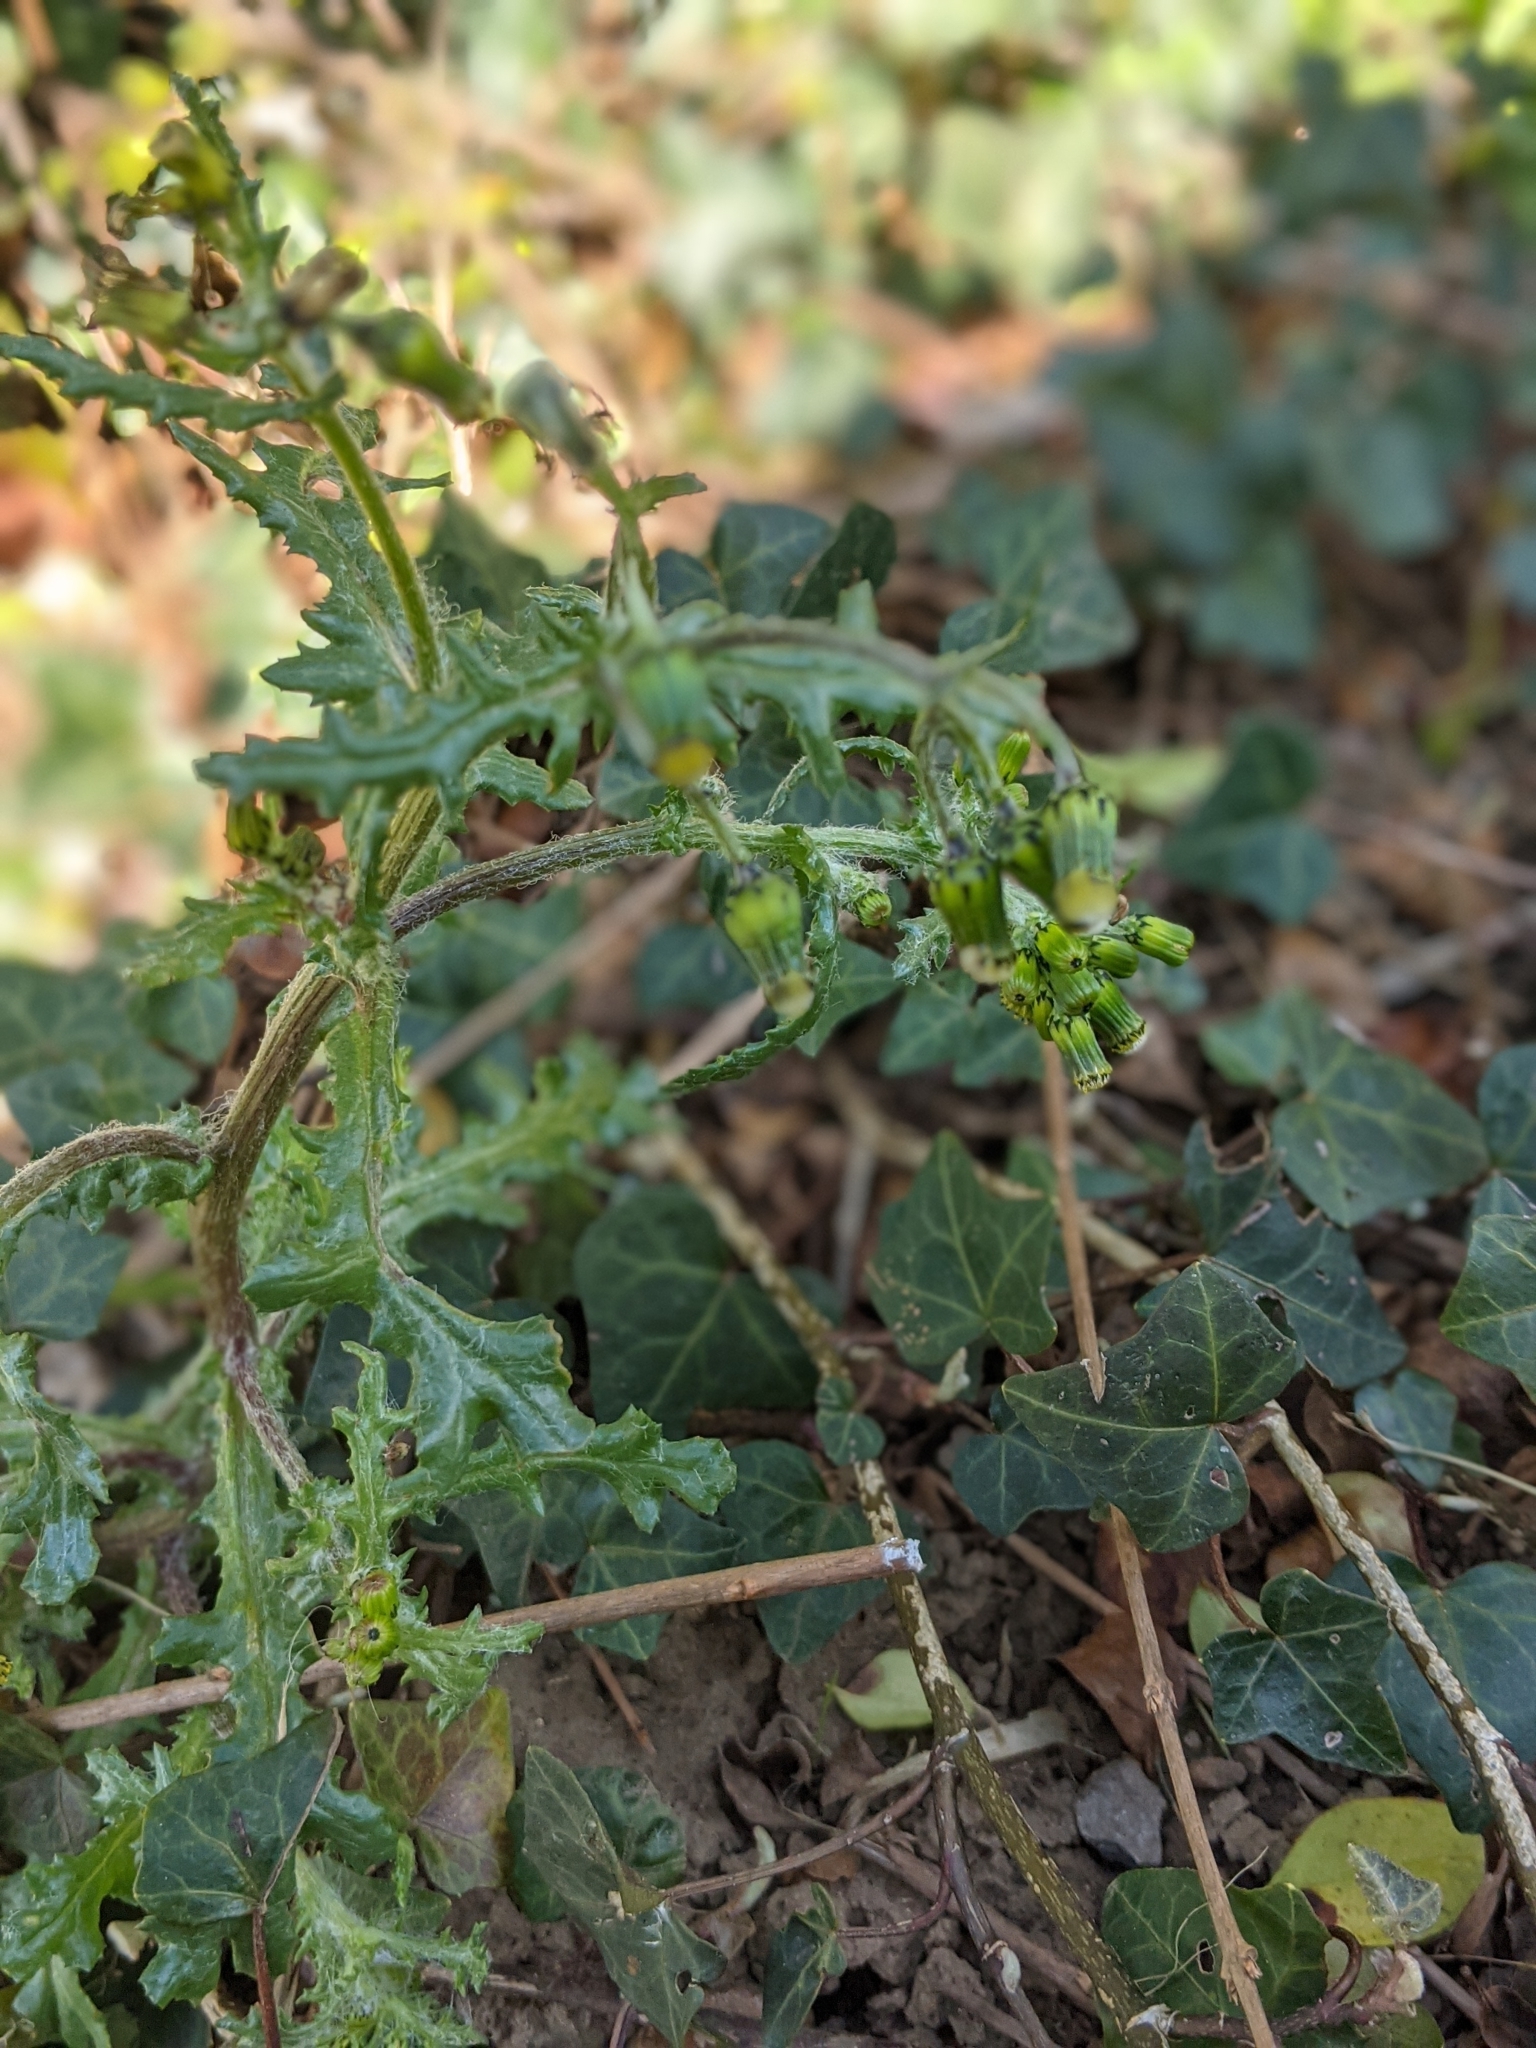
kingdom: Plantae
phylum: Tracheophyta
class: Magnoliopsida
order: Asterales
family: Asteraceae
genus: Senecio
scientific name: Senecio vulgaris
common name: Old-man-in-the-spring
